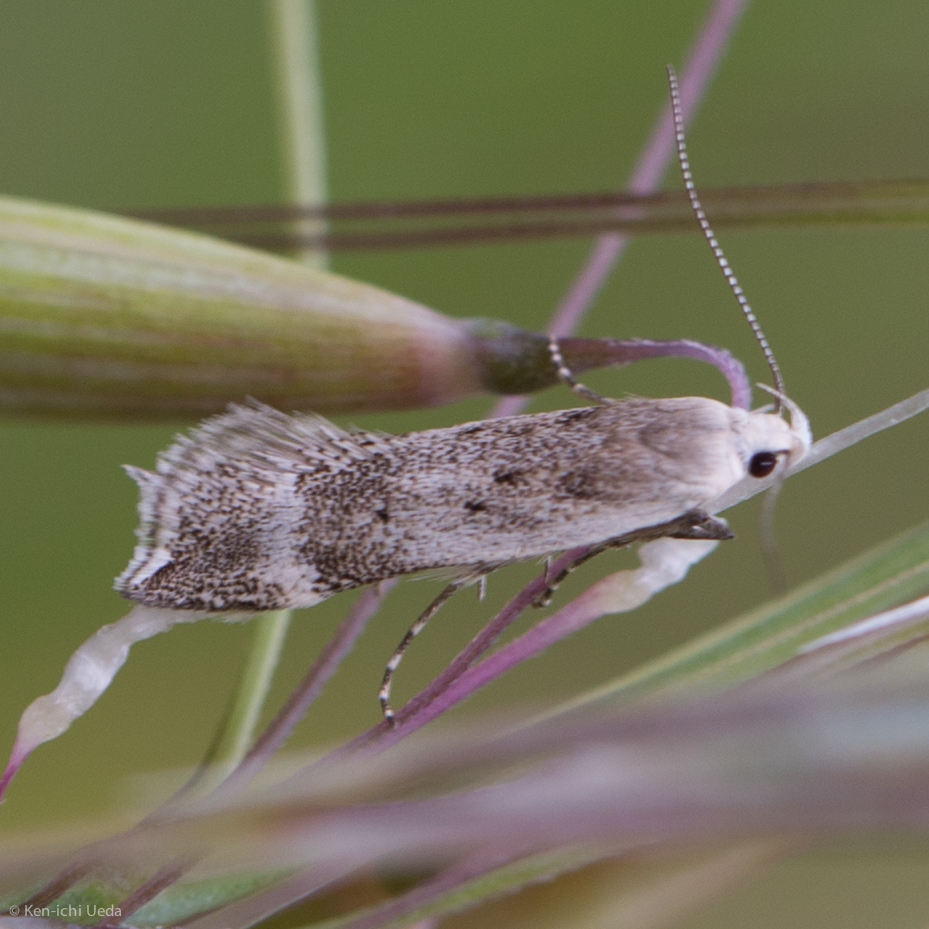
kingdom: Animalia
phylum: Arthropoda
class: Insecta
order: Lepidoptera
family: Gelechiidae
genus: Coleotechnites
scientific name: Coleotechnites invictella
